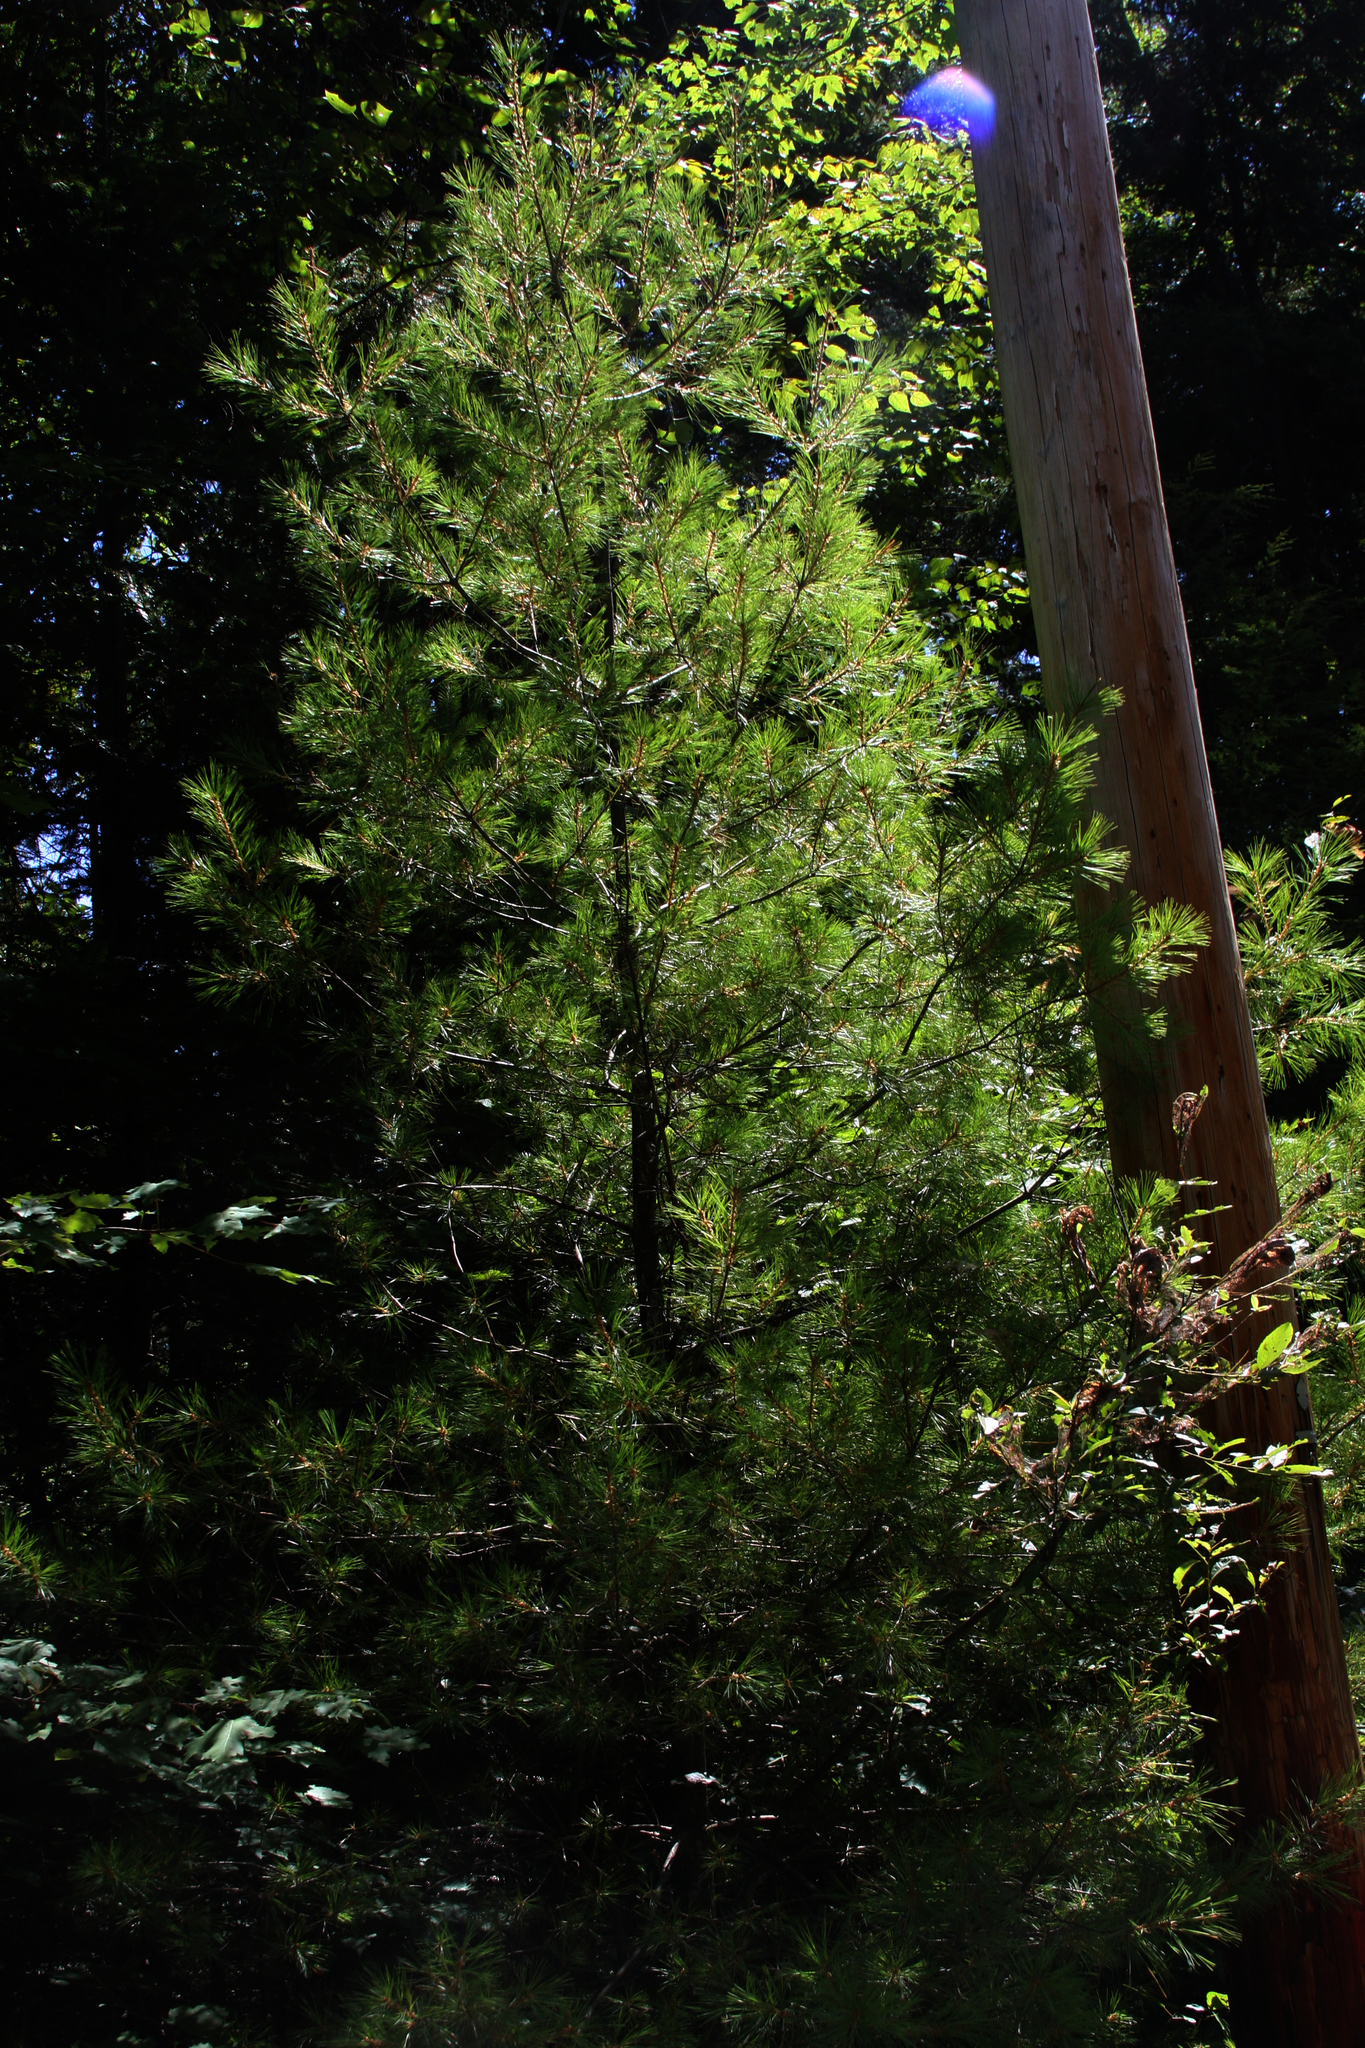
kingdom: Plantae
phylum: Tracheophyta
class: Pinopsida
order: Pinales
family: Pinaceae
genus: Pinus
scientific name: Pinus strobus
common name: Weymouth pine
